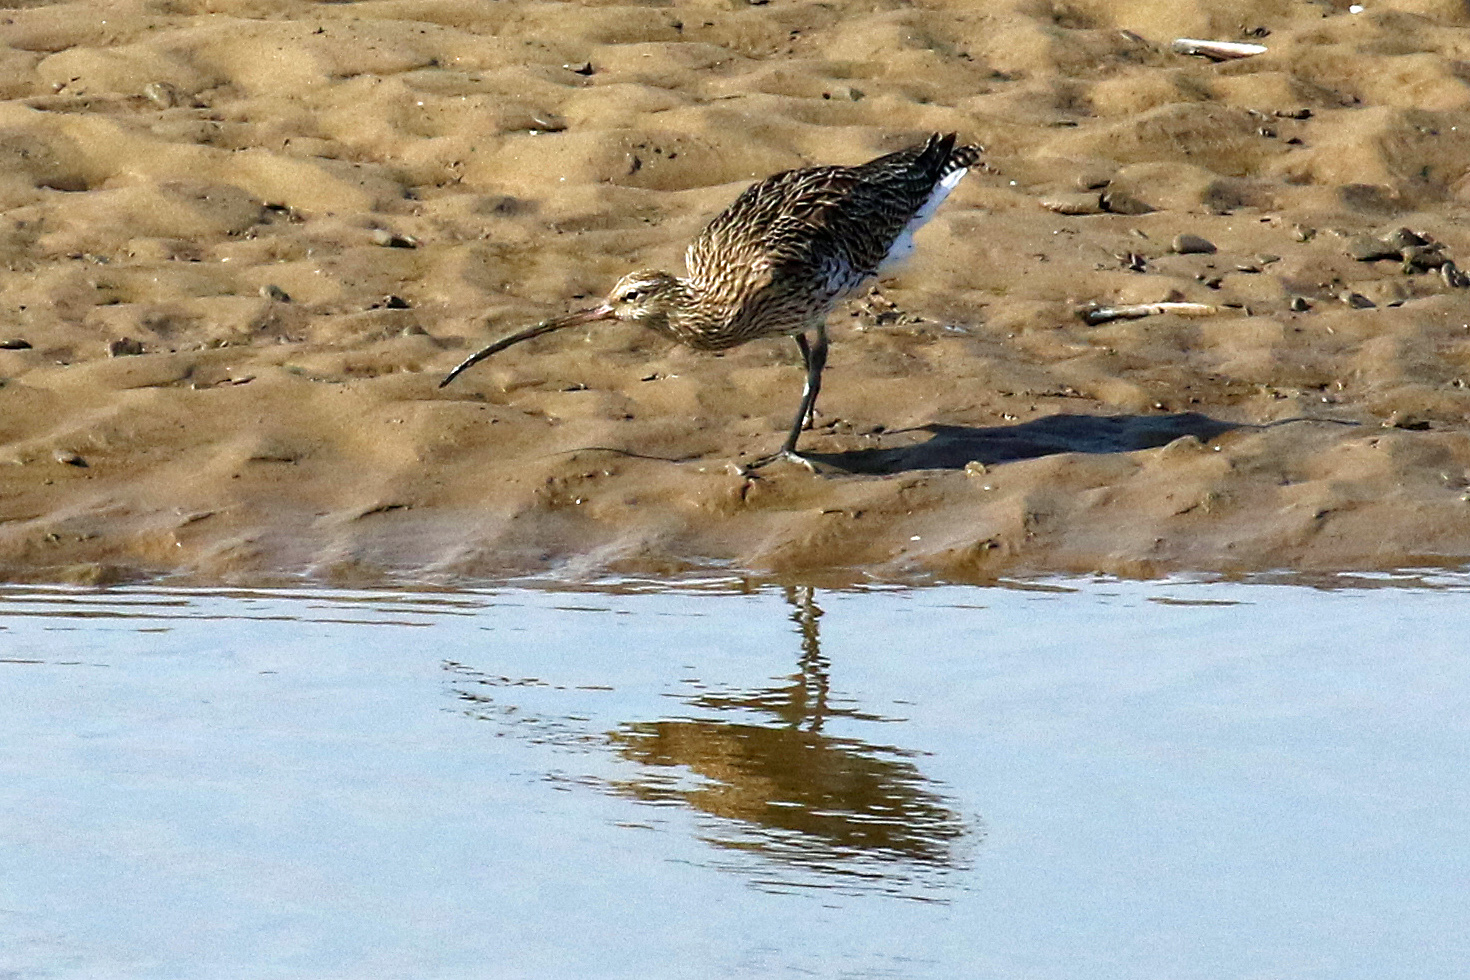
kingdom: Animalia
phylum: Chordata
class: Aves
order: Charadriiformes
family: Scolopacidae
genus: Numenius
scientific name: Numenius arquata
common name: Eurasian curlew
